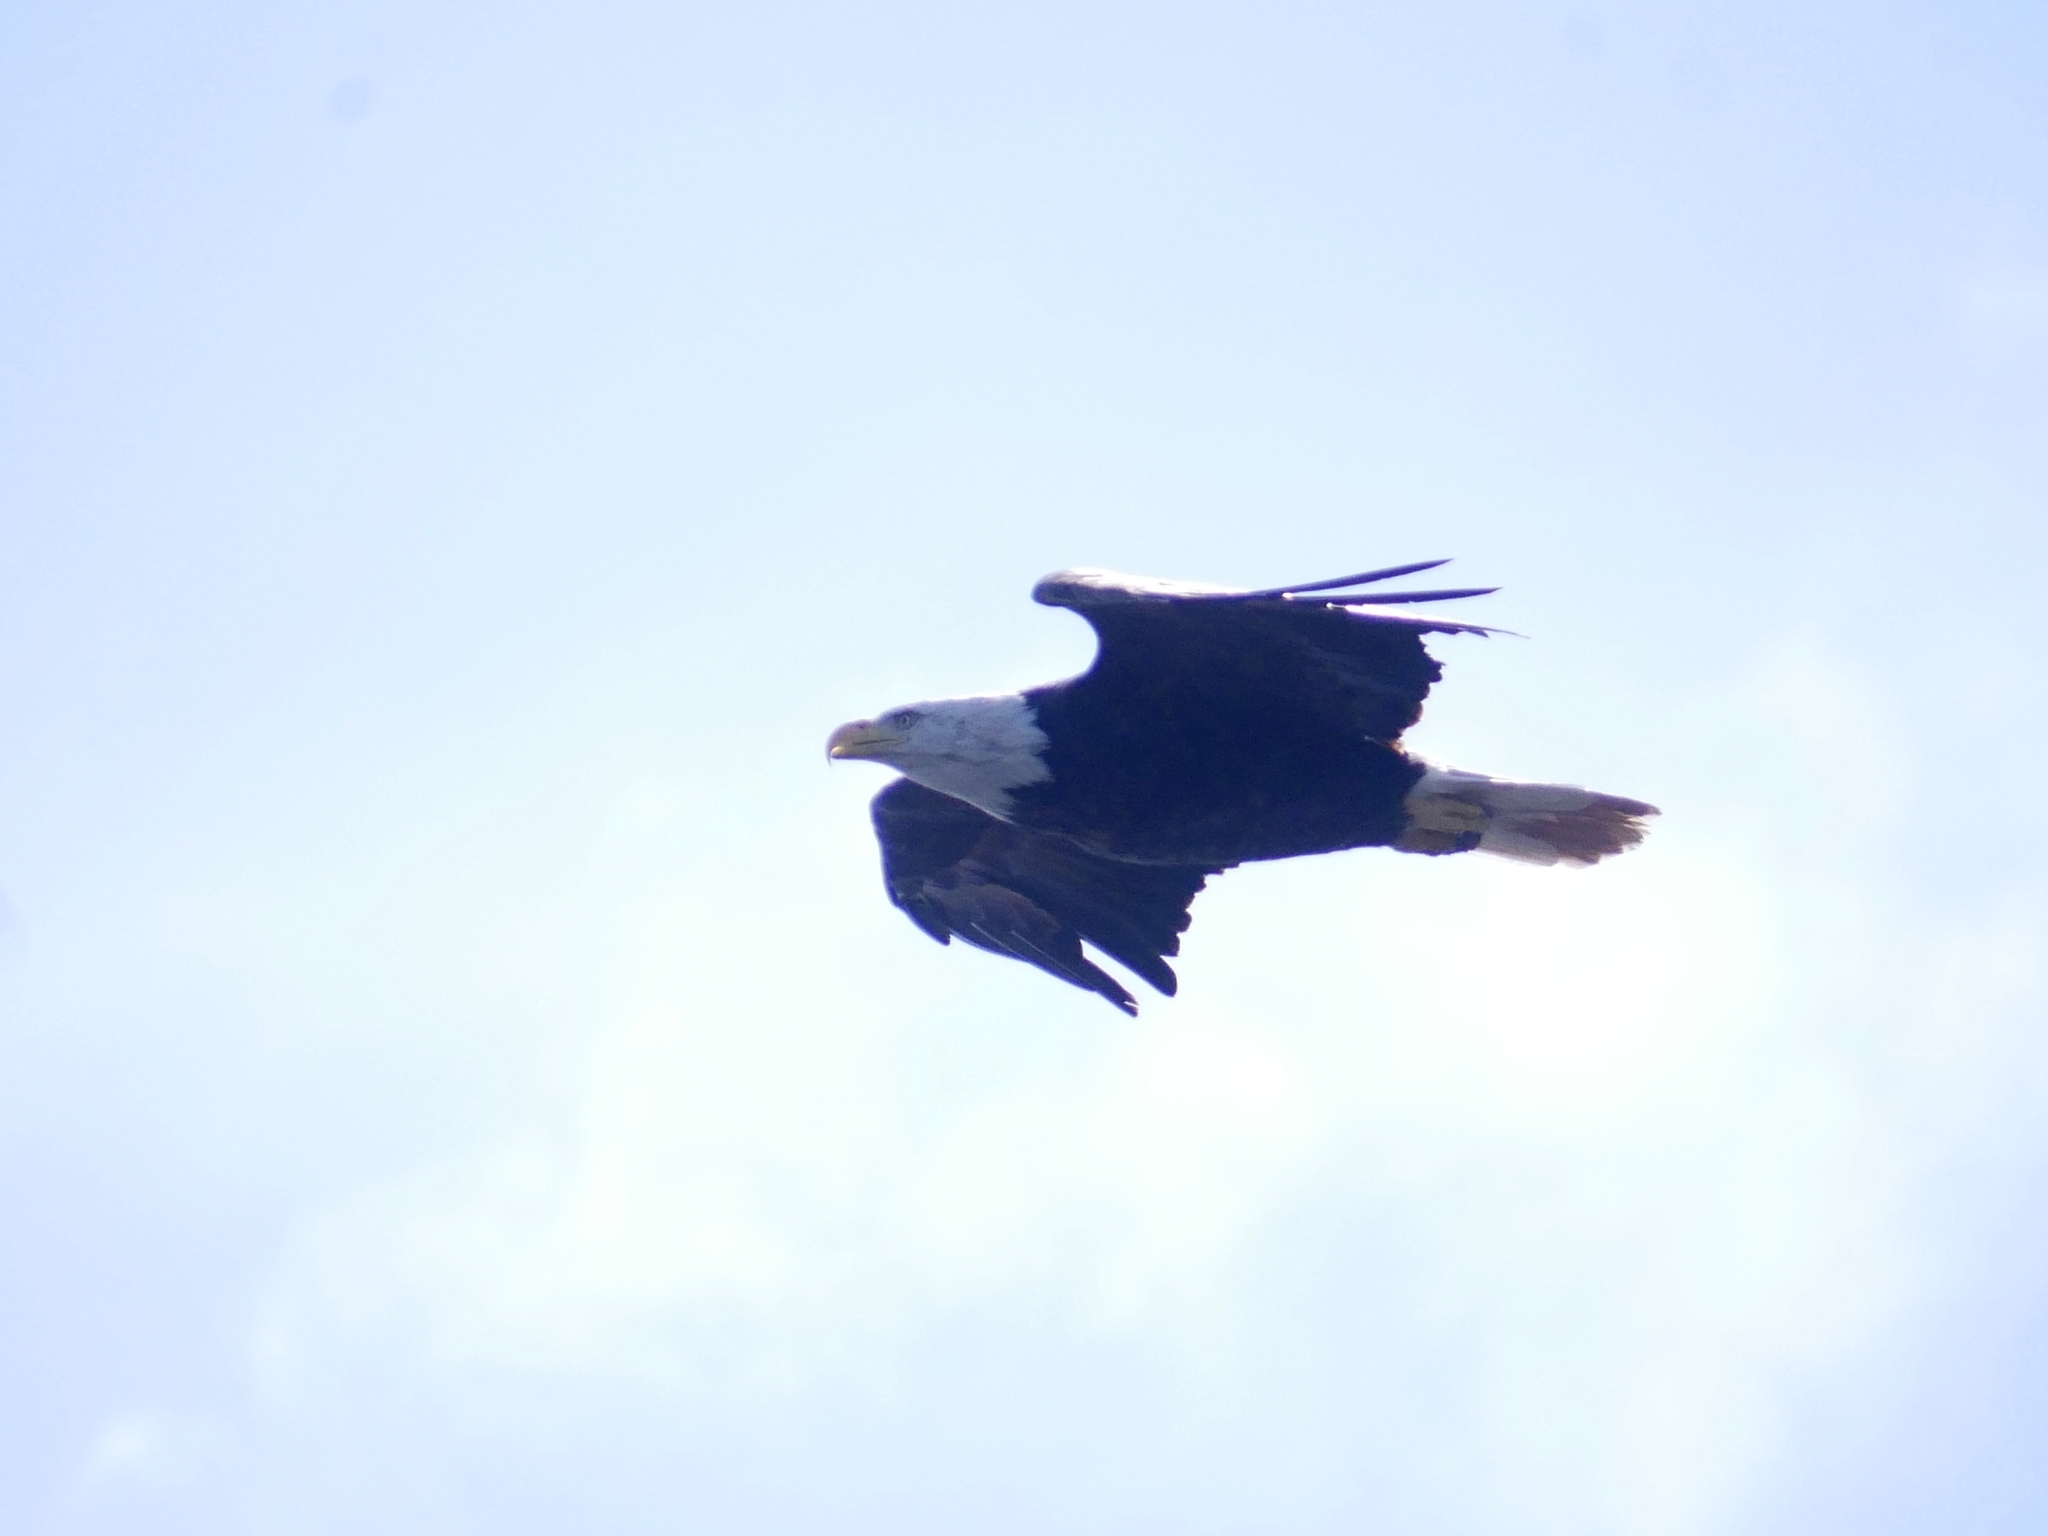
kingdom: Animalia
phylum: Chordata
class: Aves
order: Accipitriformes
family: Accipitridae
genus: Haliaeetus
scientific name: Haliaeetus leucocephalus
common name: Bald eagle
